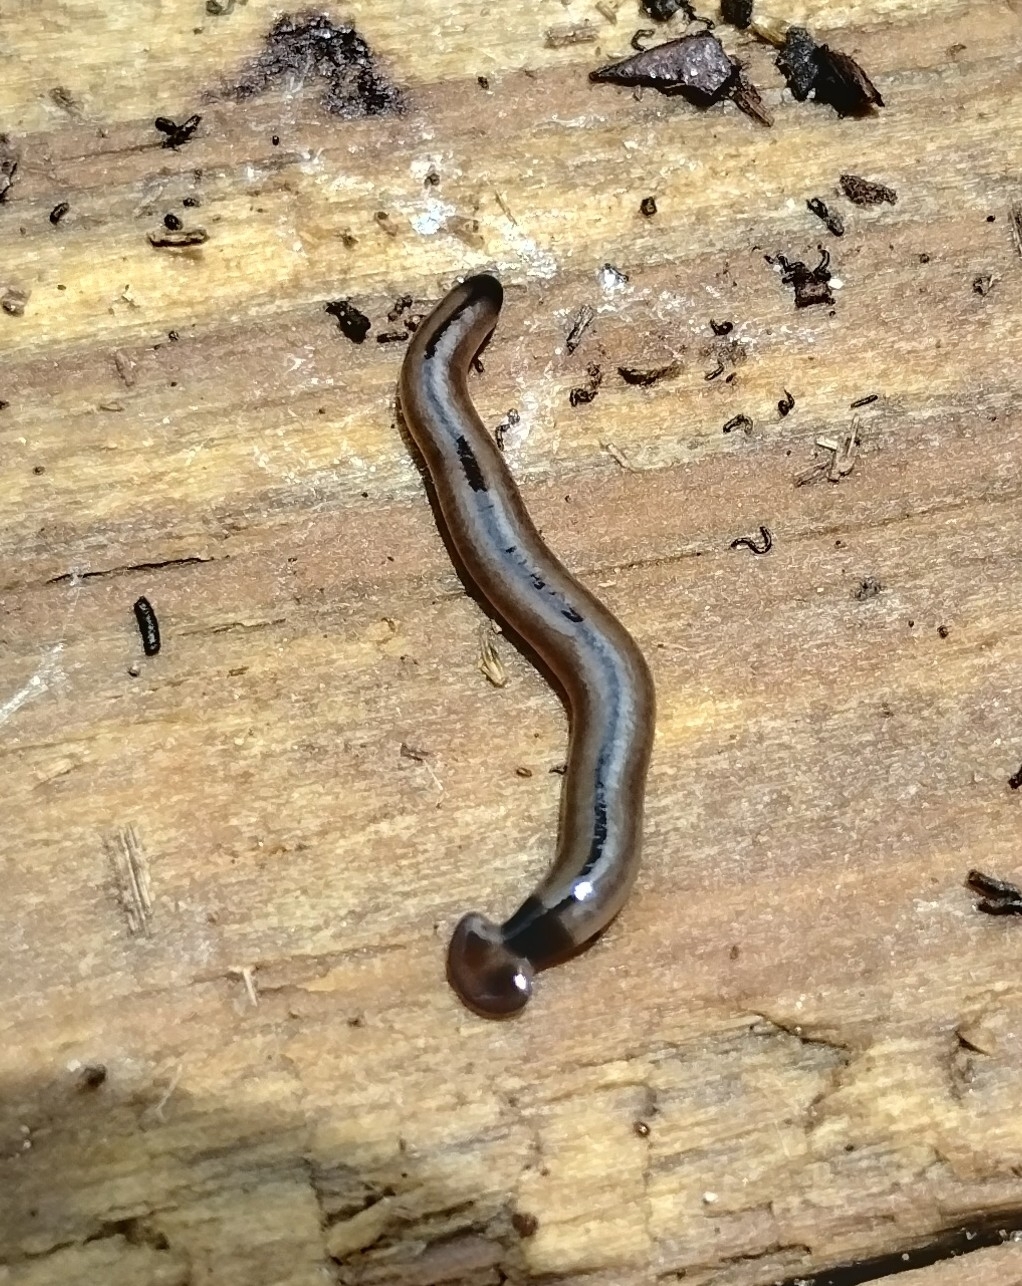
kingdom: Animalia
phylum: Platyhelminthes
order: Tricladida
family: Geoplanidae
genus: Bipalium
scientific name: Bipalium vagum
